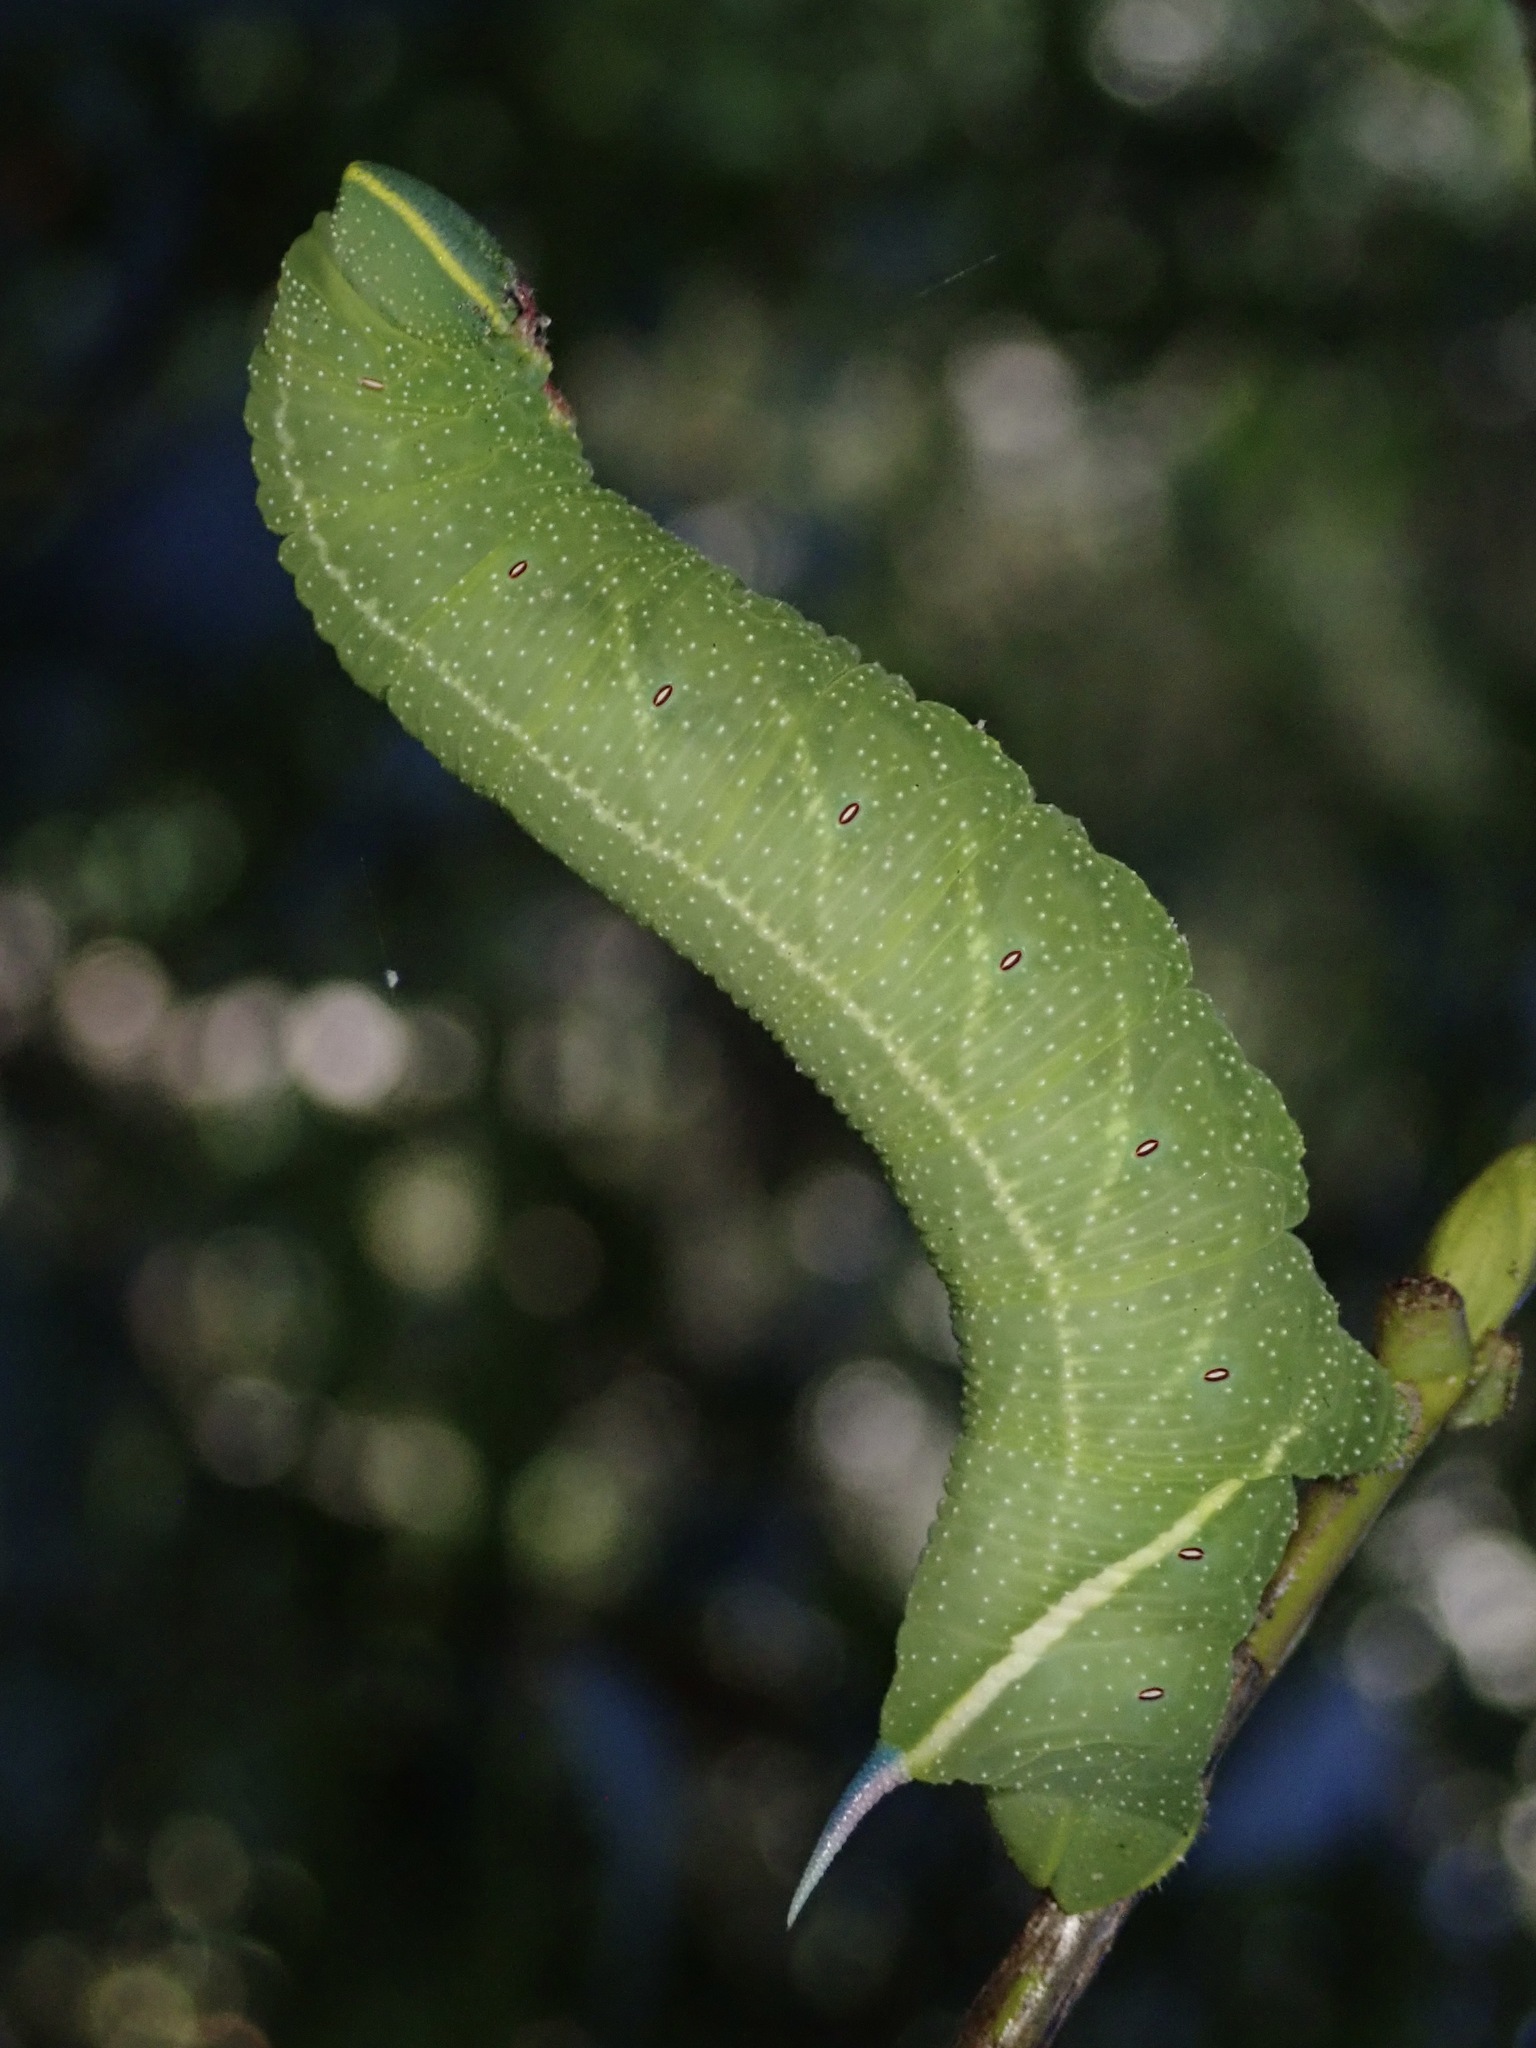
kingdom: Animalia
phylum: Arthropoda
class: Insecta
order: Lepidoptera
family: Sphingidae
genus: Smerinthus
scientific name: Smerinthus cerisyi
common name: Cerisy's sphinx moth
